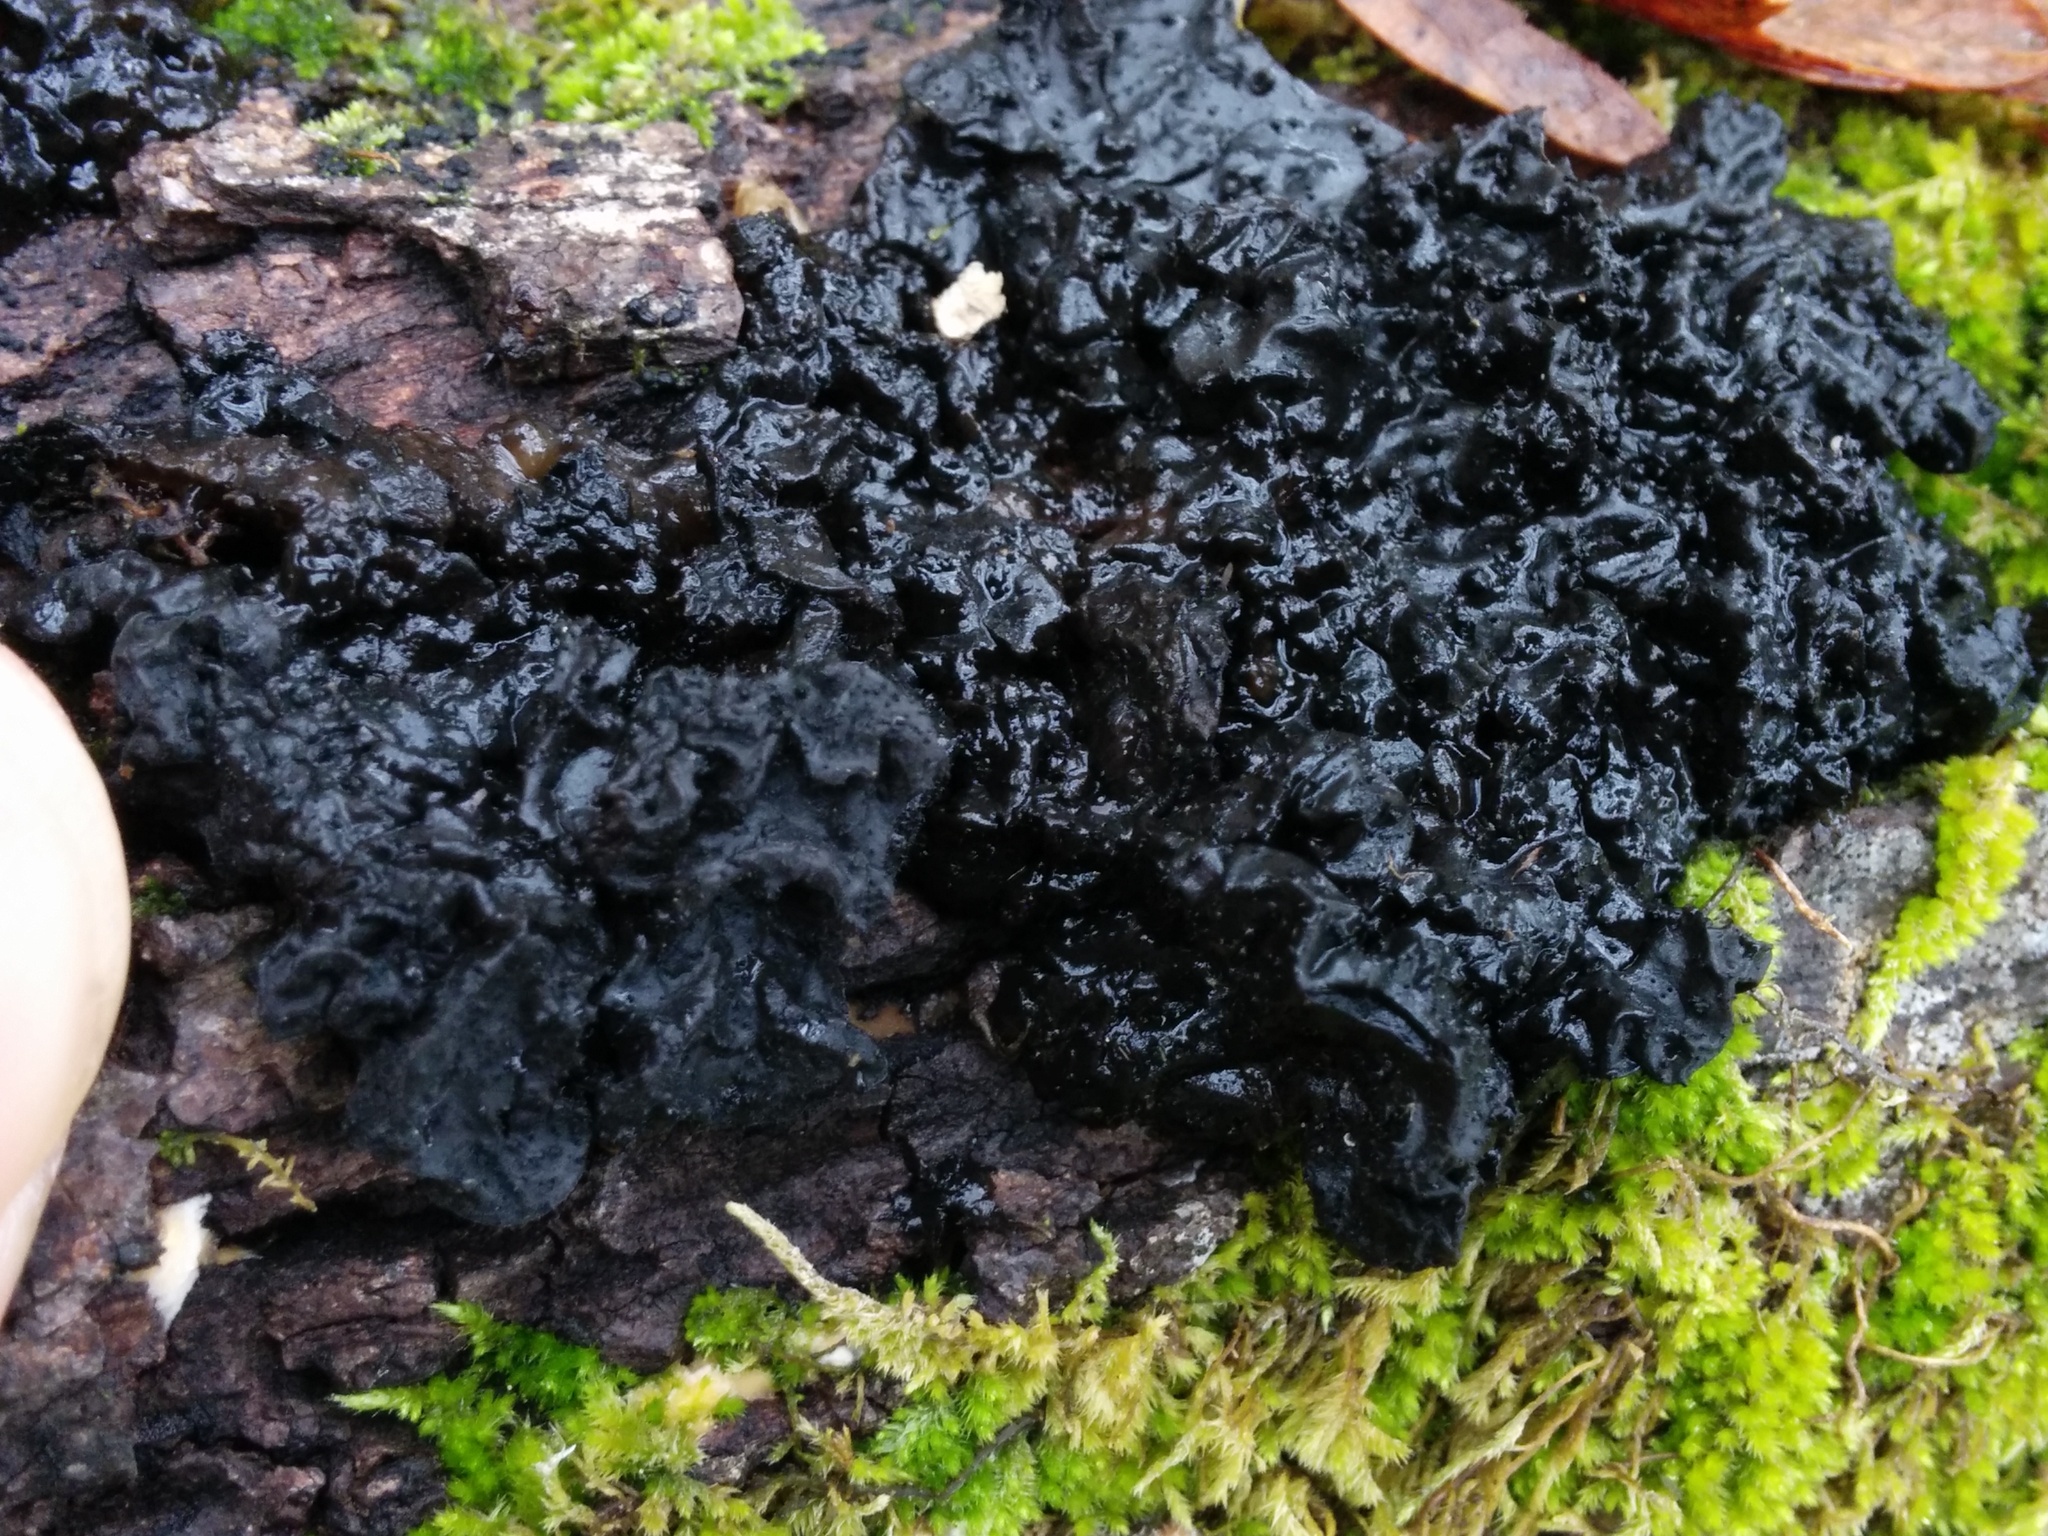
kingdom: Fungi
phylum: Basidiomycota
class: Agaricomycetes
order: Auriculariales
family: Auriculariaceae
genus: Exidia
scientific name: Exidia glandulosa
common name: Witches' butter
